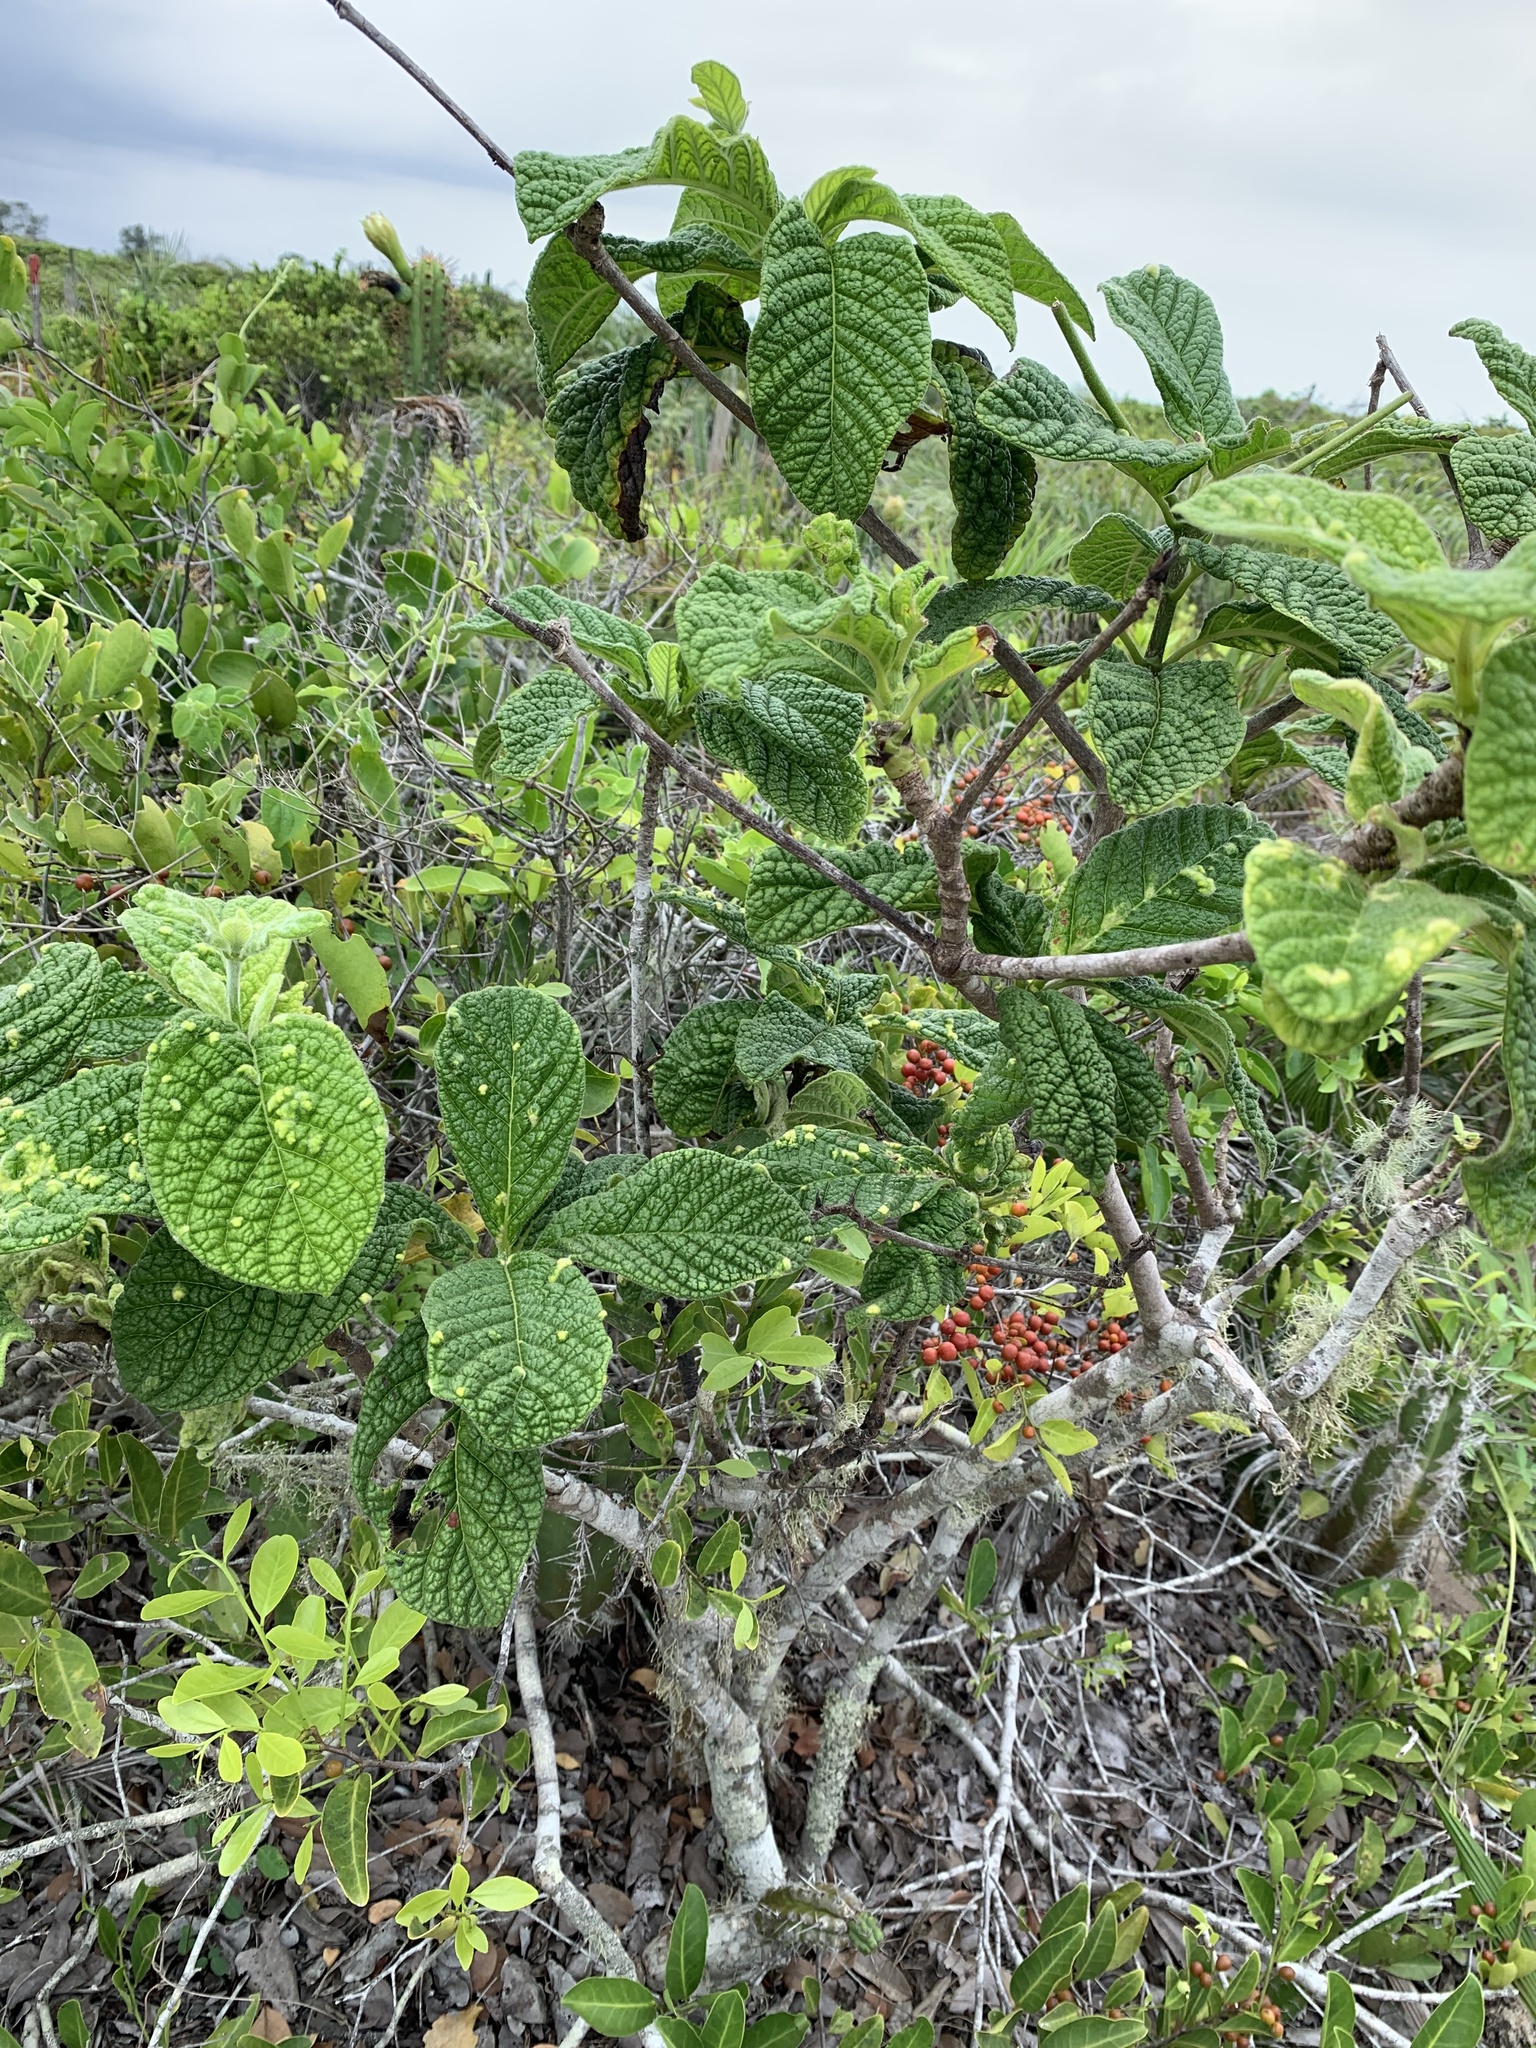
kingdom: Plantae
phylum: Tracheophyta
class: Magnoliopsida
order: Gentianales
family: Rubiaceae
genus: Tocoyena
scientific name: Tocoyena bullata
